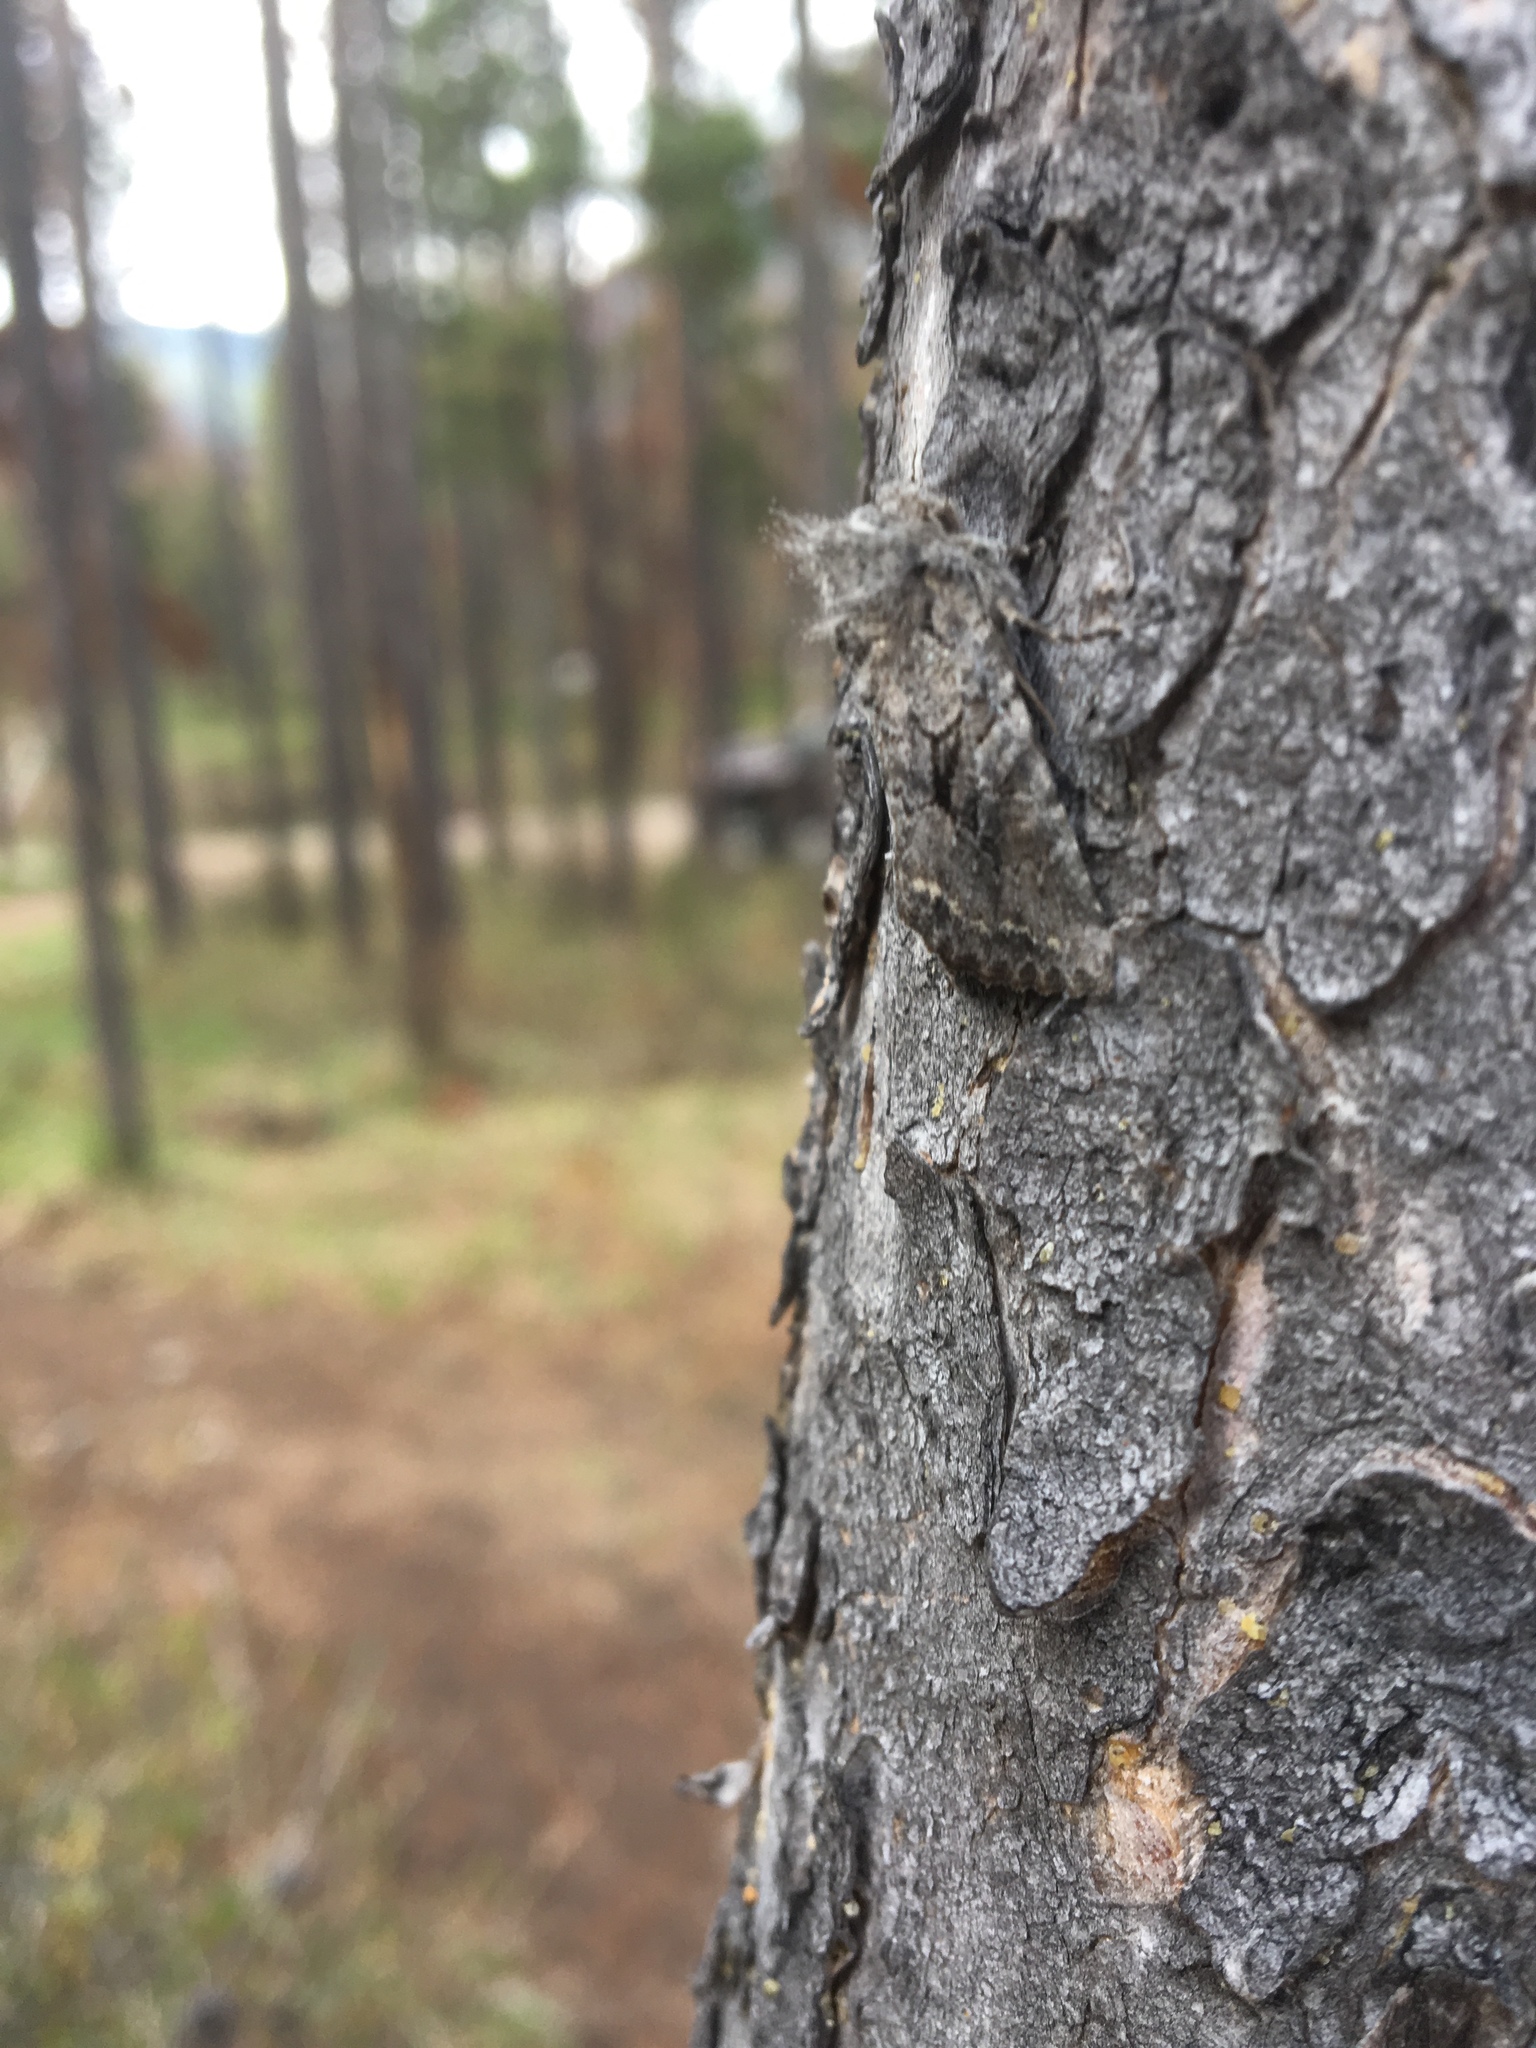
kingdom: Animalia
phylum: Arthropoda
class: Insecta
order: Lepidoptera
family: Noctuidae
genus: Orthosia
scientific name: Orthosia segregata
